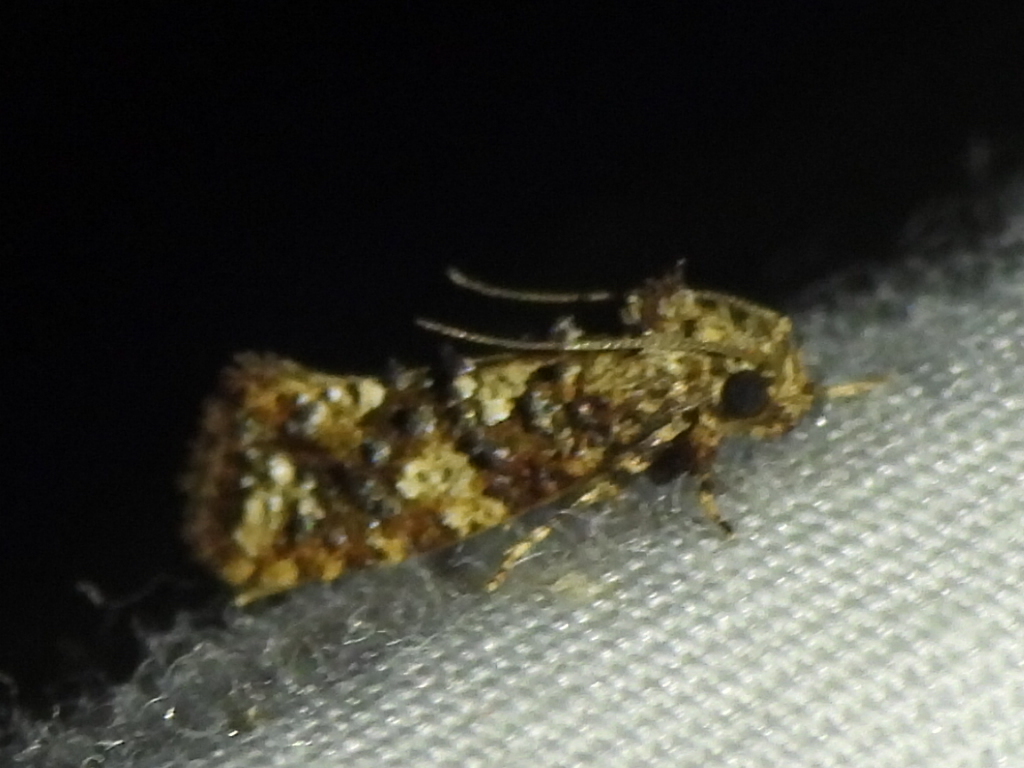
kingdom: Animalia
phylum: Arthropoda
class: Insecta
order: Lepidoptera
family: Tineidae
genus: Acrolophus
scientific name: Acrolophus cressoni
